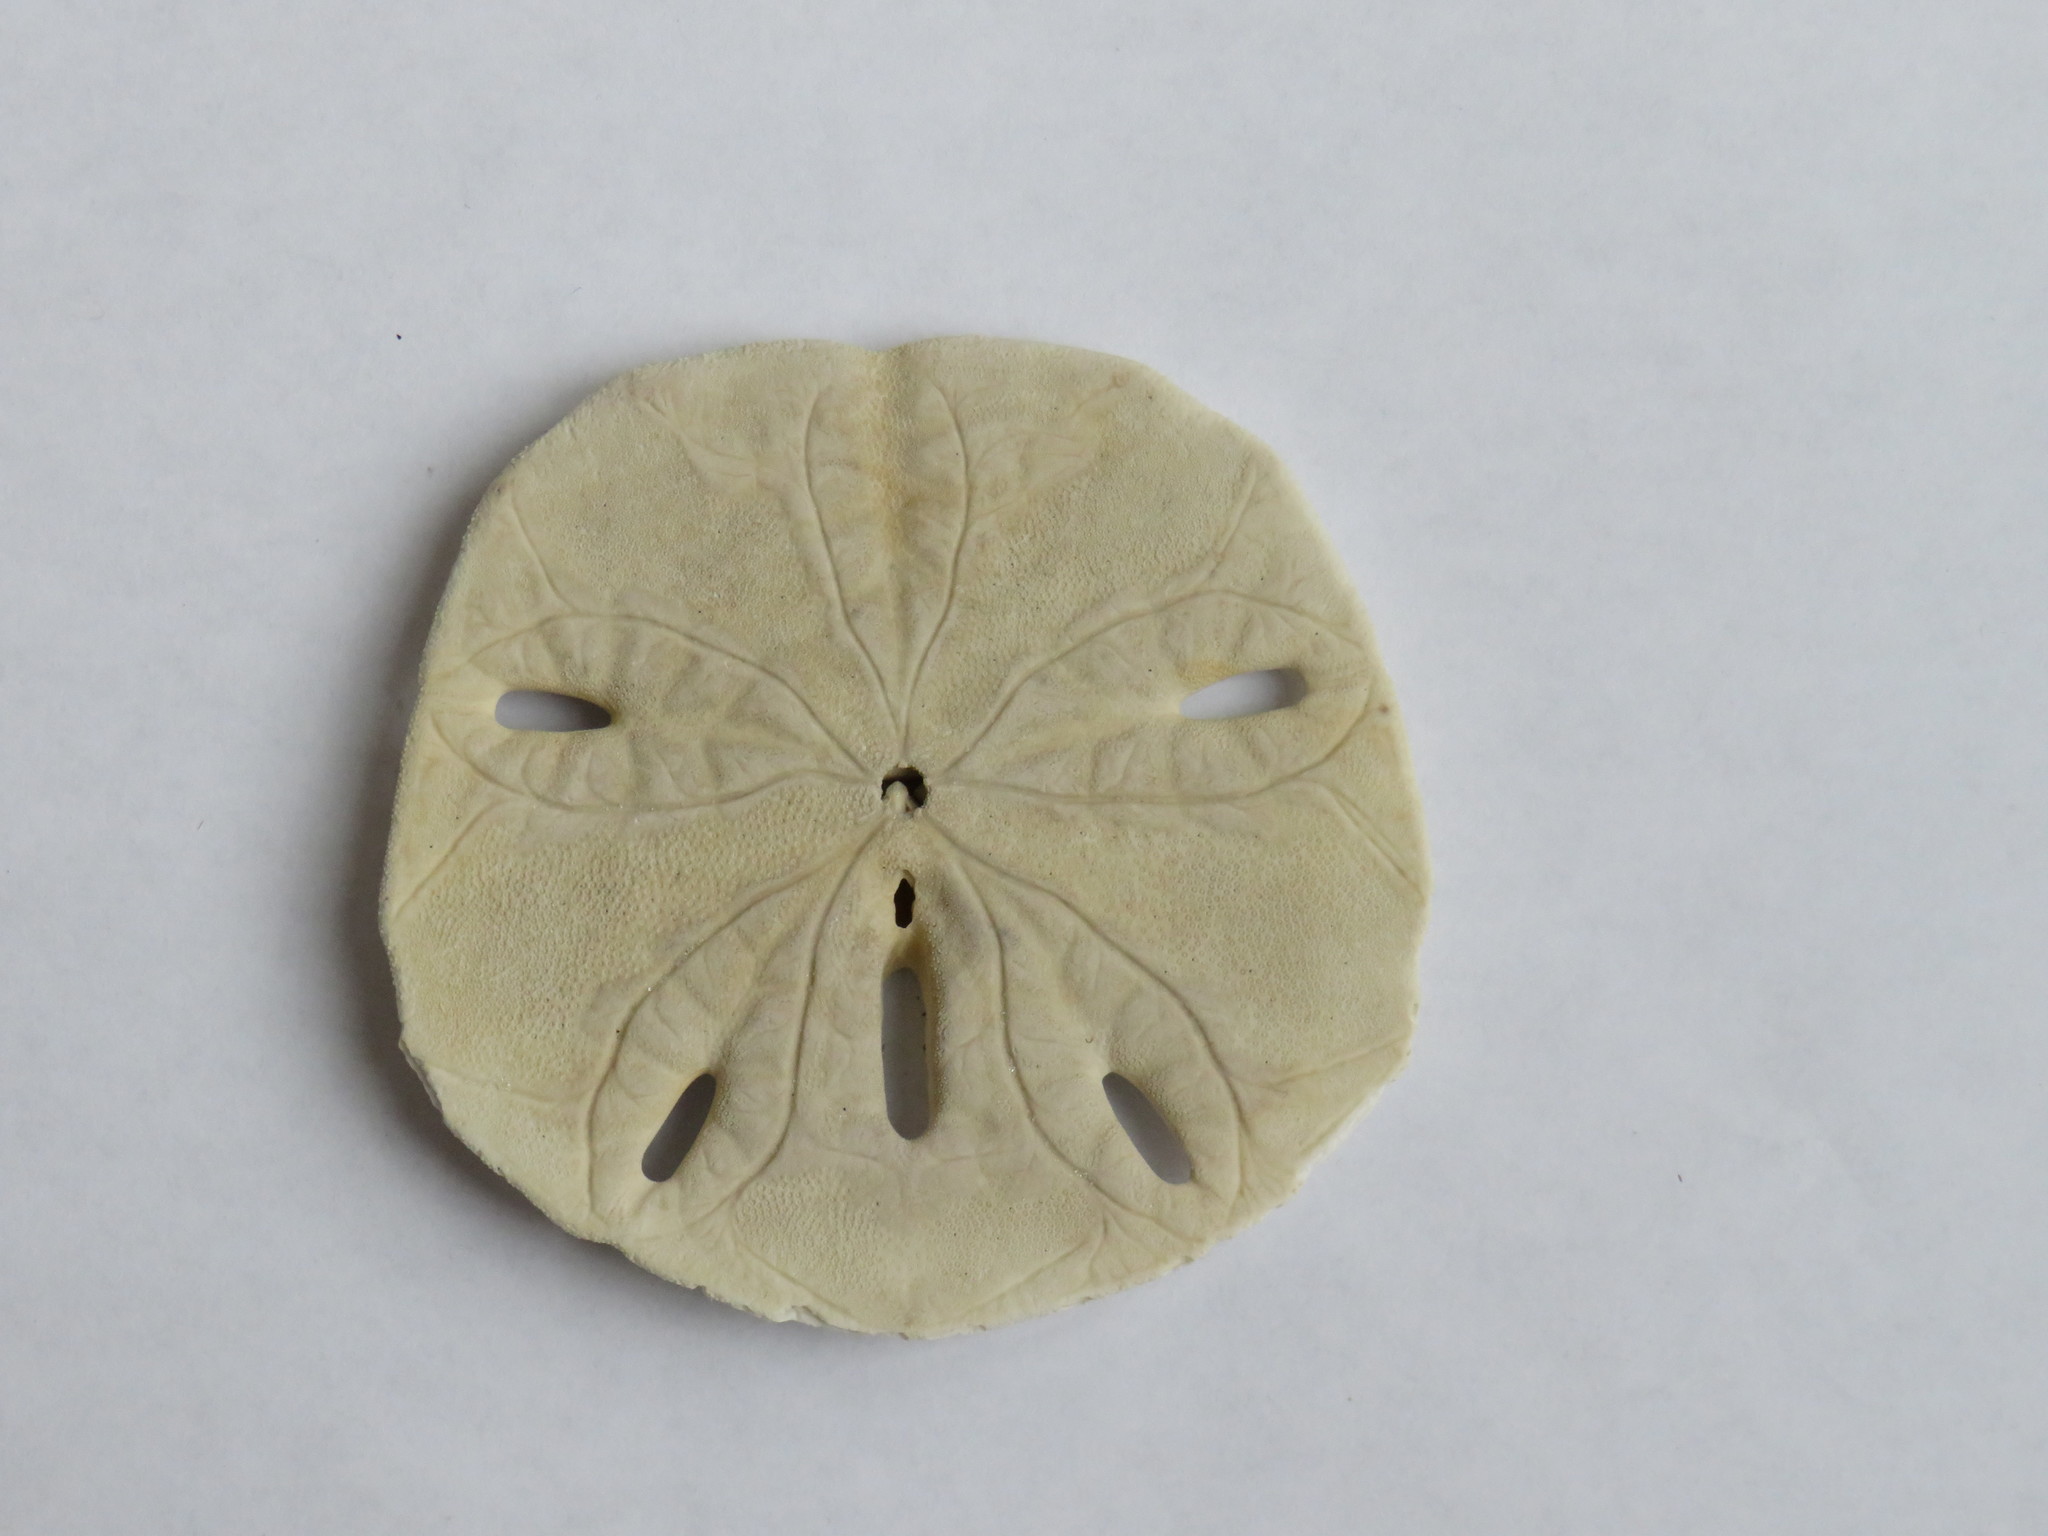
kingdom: Animalia
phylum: Echinodermata
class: Echinoidea
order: Echinolampadacea
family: Mellitidae
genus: Mellita
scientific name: Mellita quinquiesperforata
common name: Sand dollar
